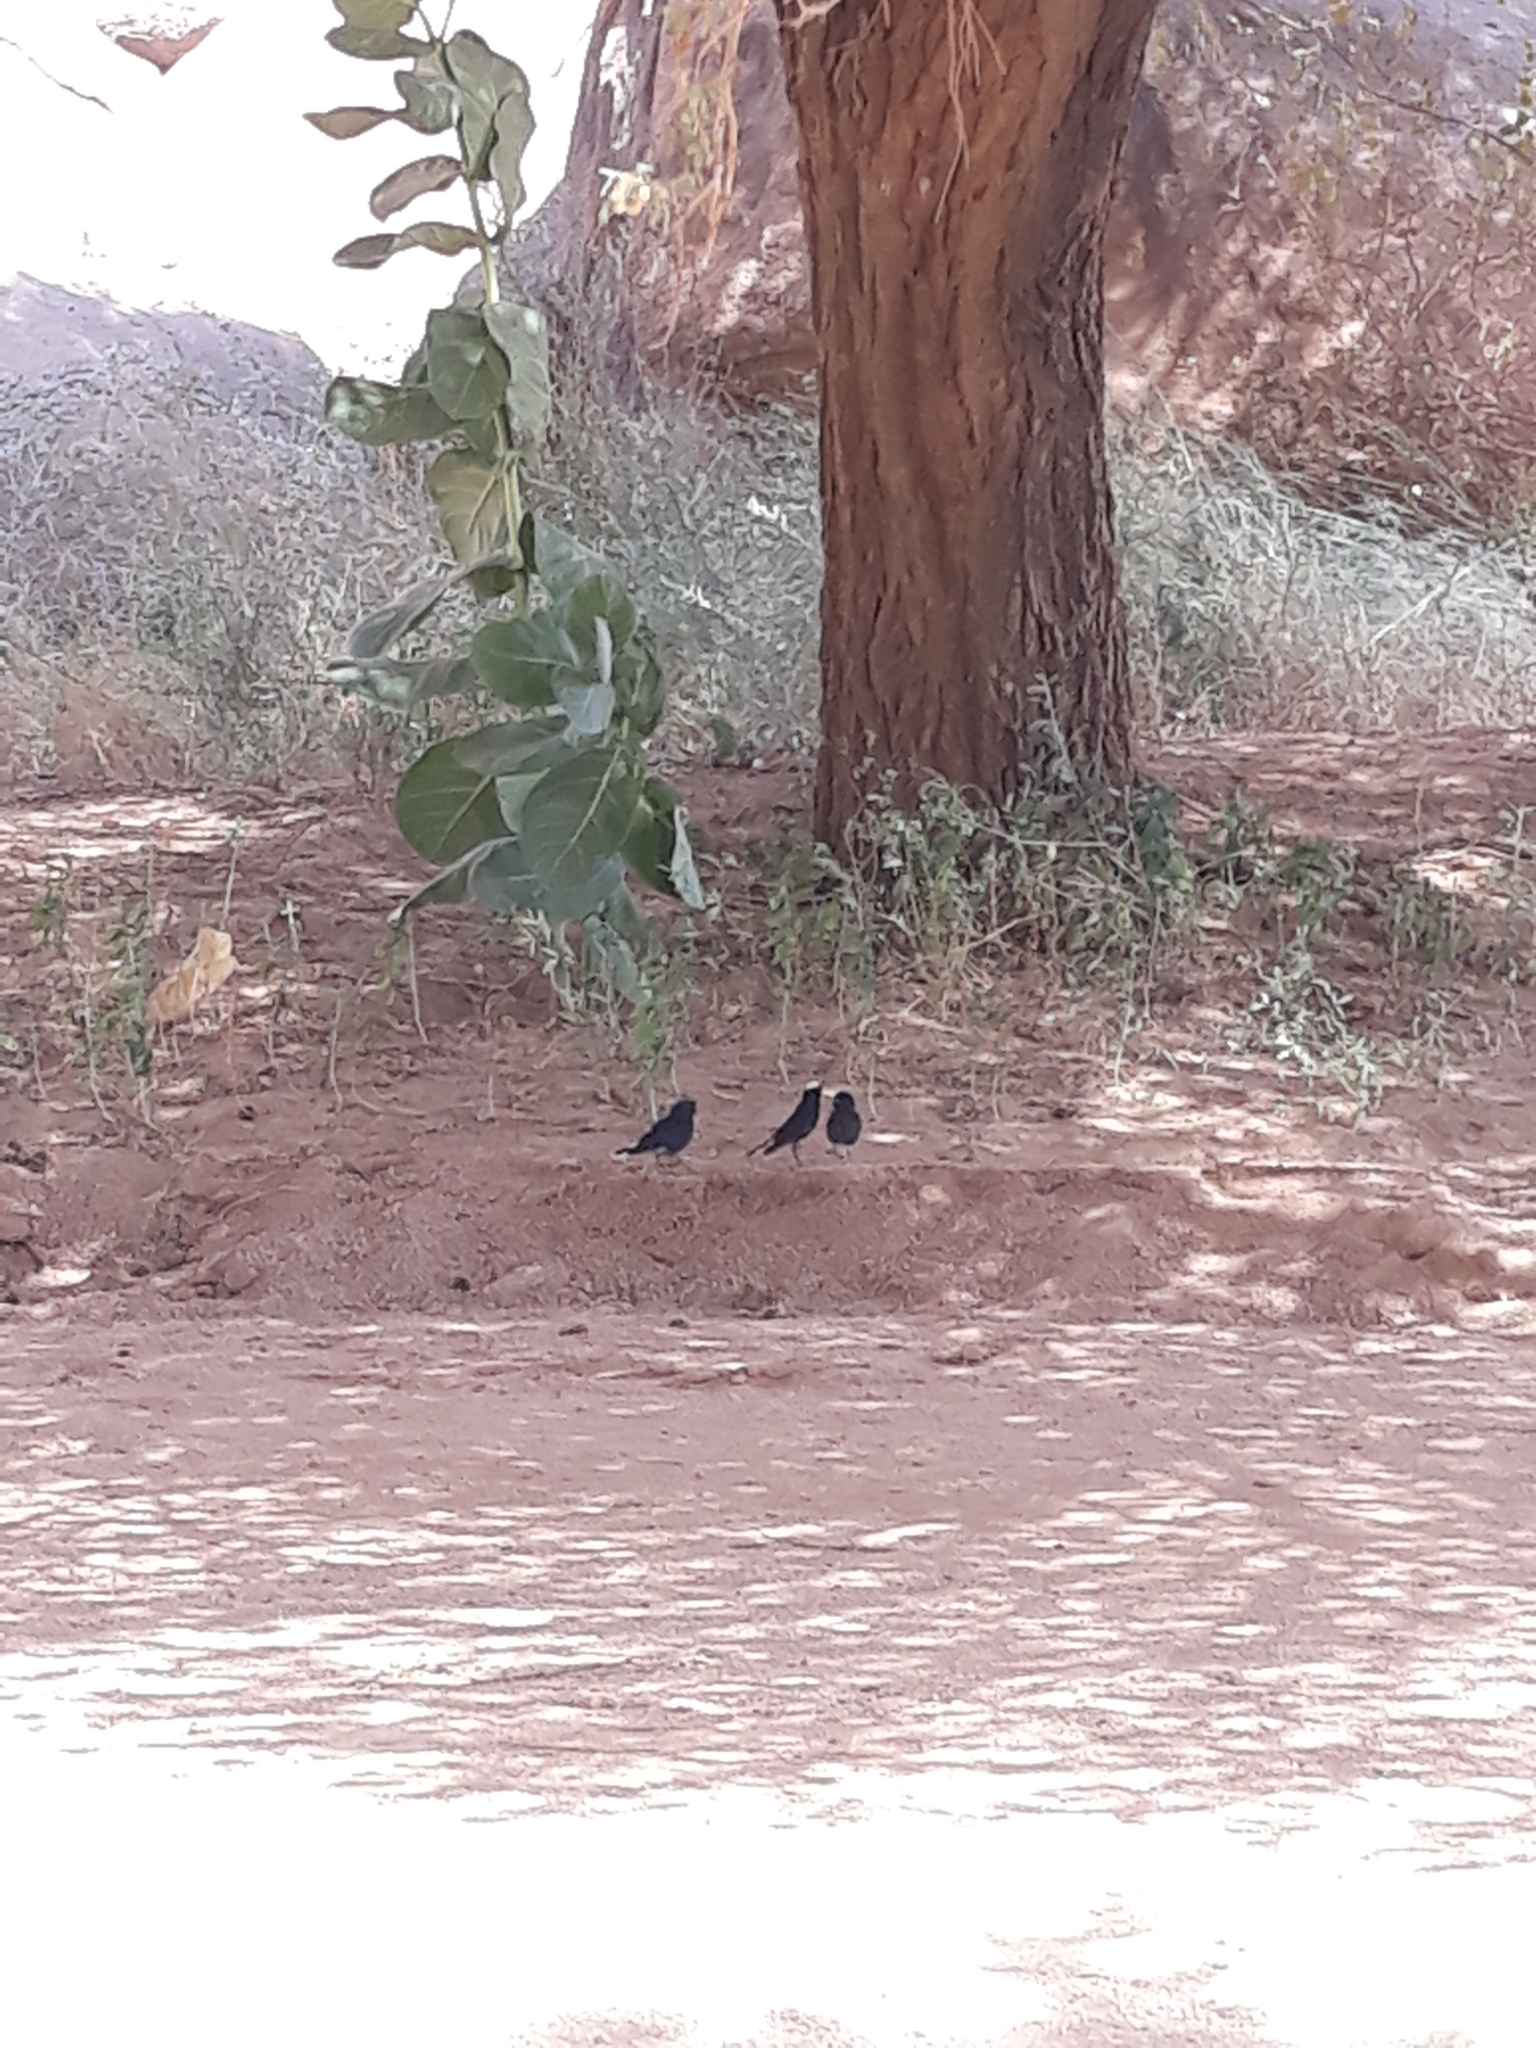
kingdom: Animalia
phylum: Chordata
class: Aves
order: Passeriformes
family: Muscicapidae
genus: Oenanthe
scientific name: Oenanthe leucopyga
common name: White-crowned wheatear
